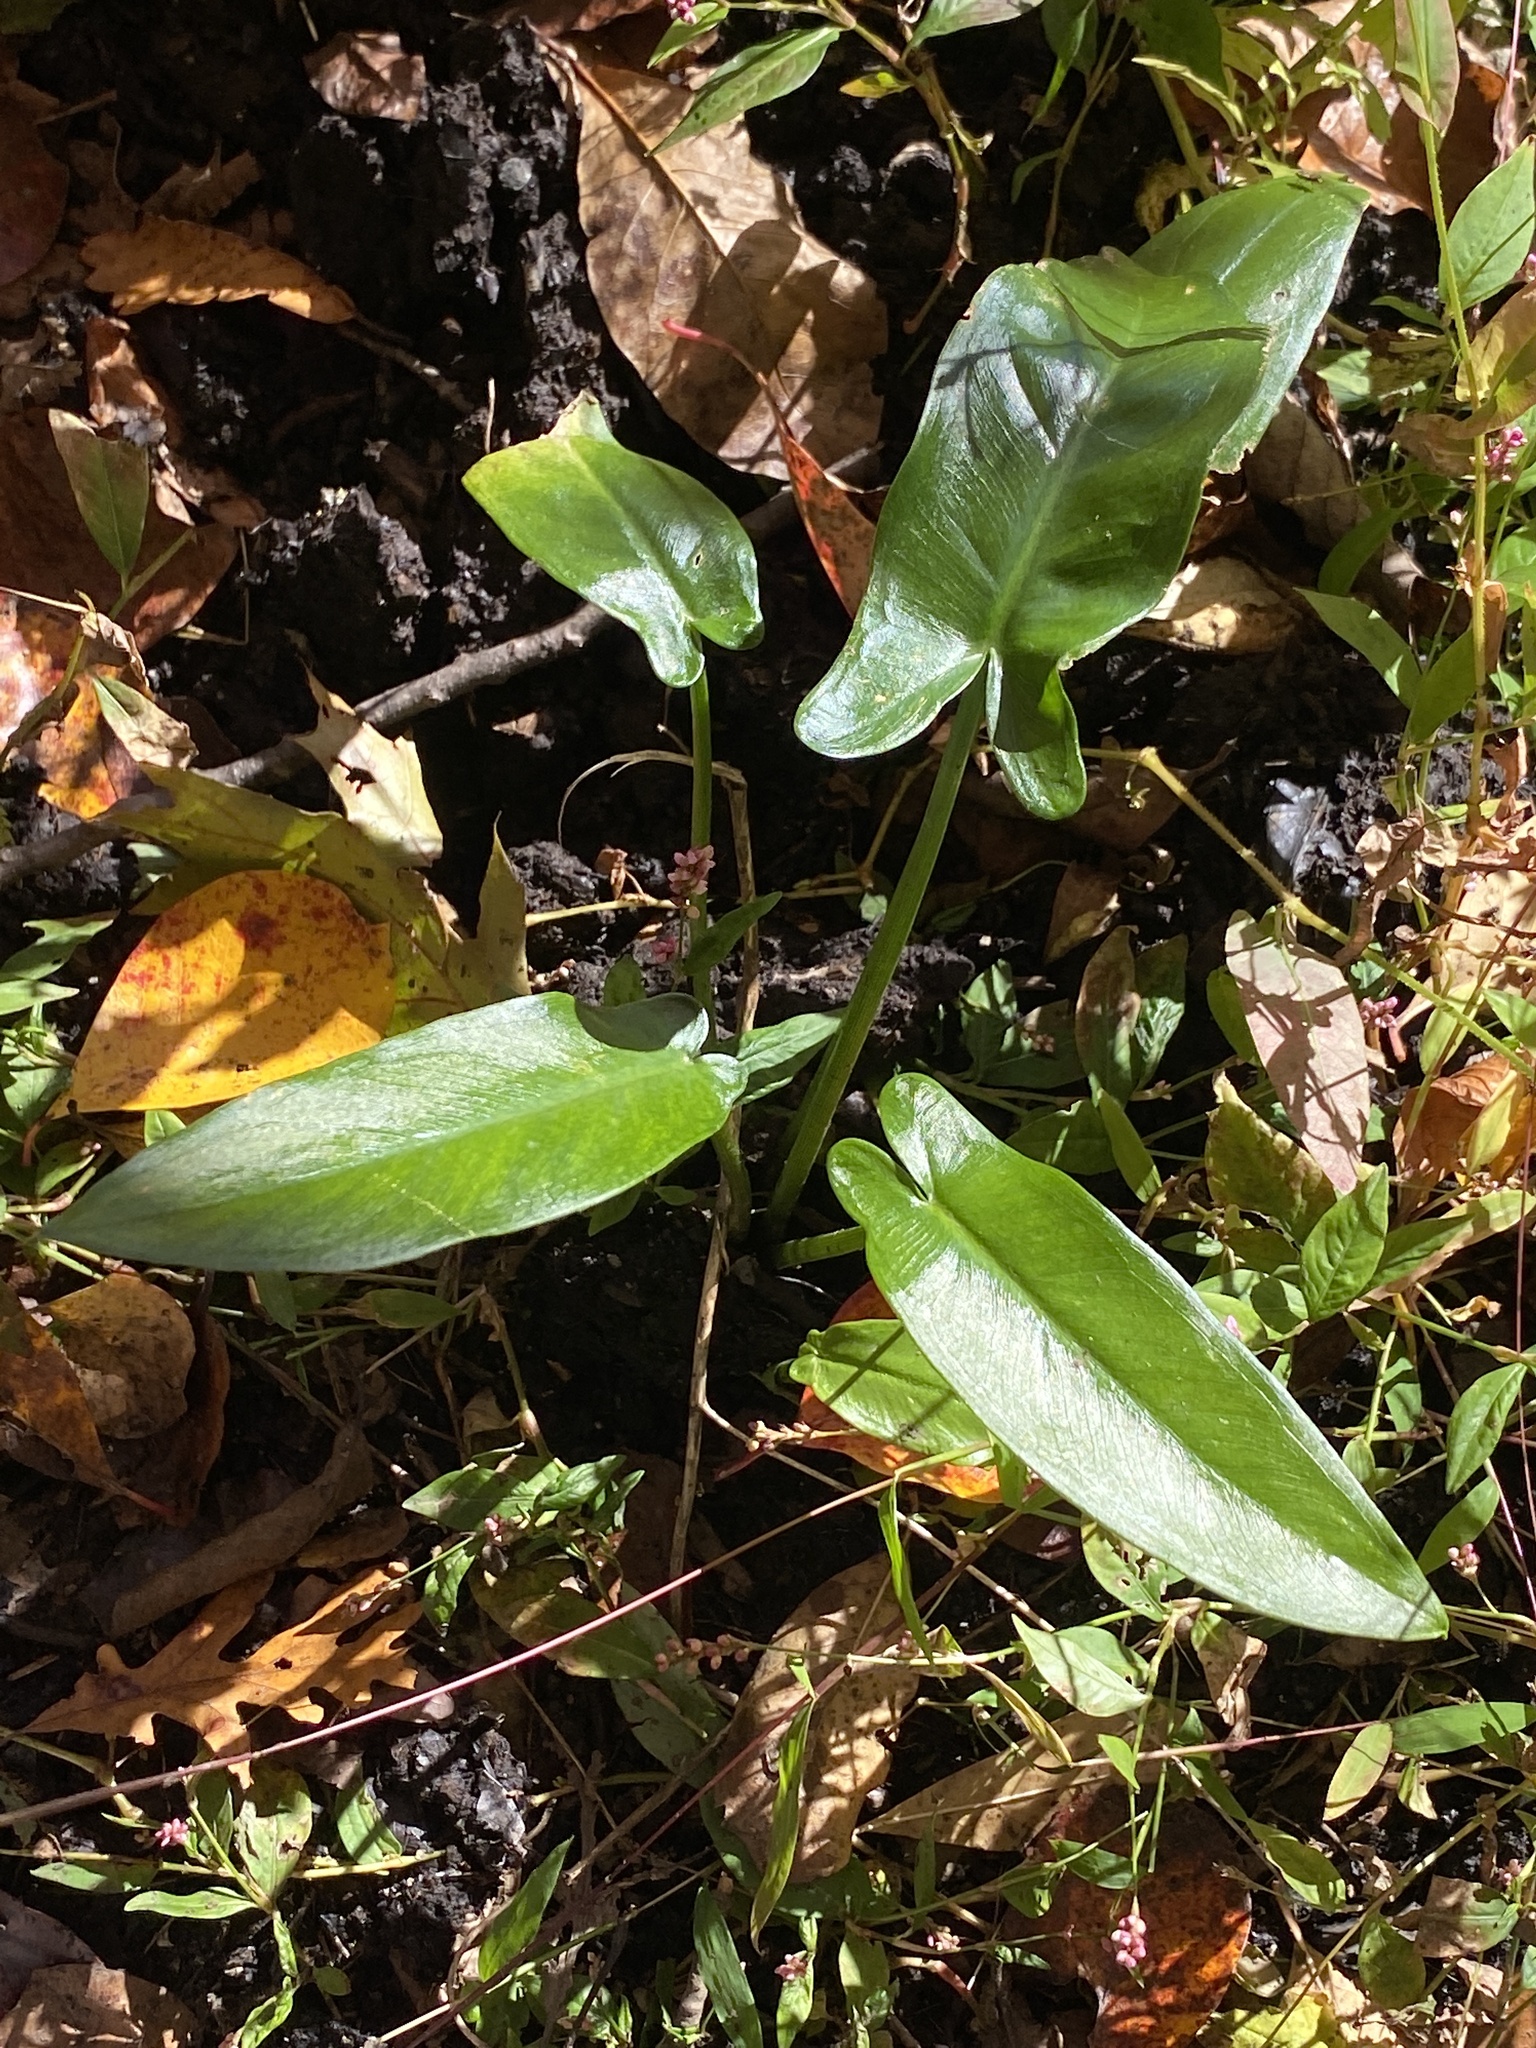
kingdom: Plantae
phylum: Tracheophyta
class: Liliopsida
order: Alismatales
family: Araceae
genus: Peltandra
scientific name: Peltandra virginica
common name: Arrow arum
